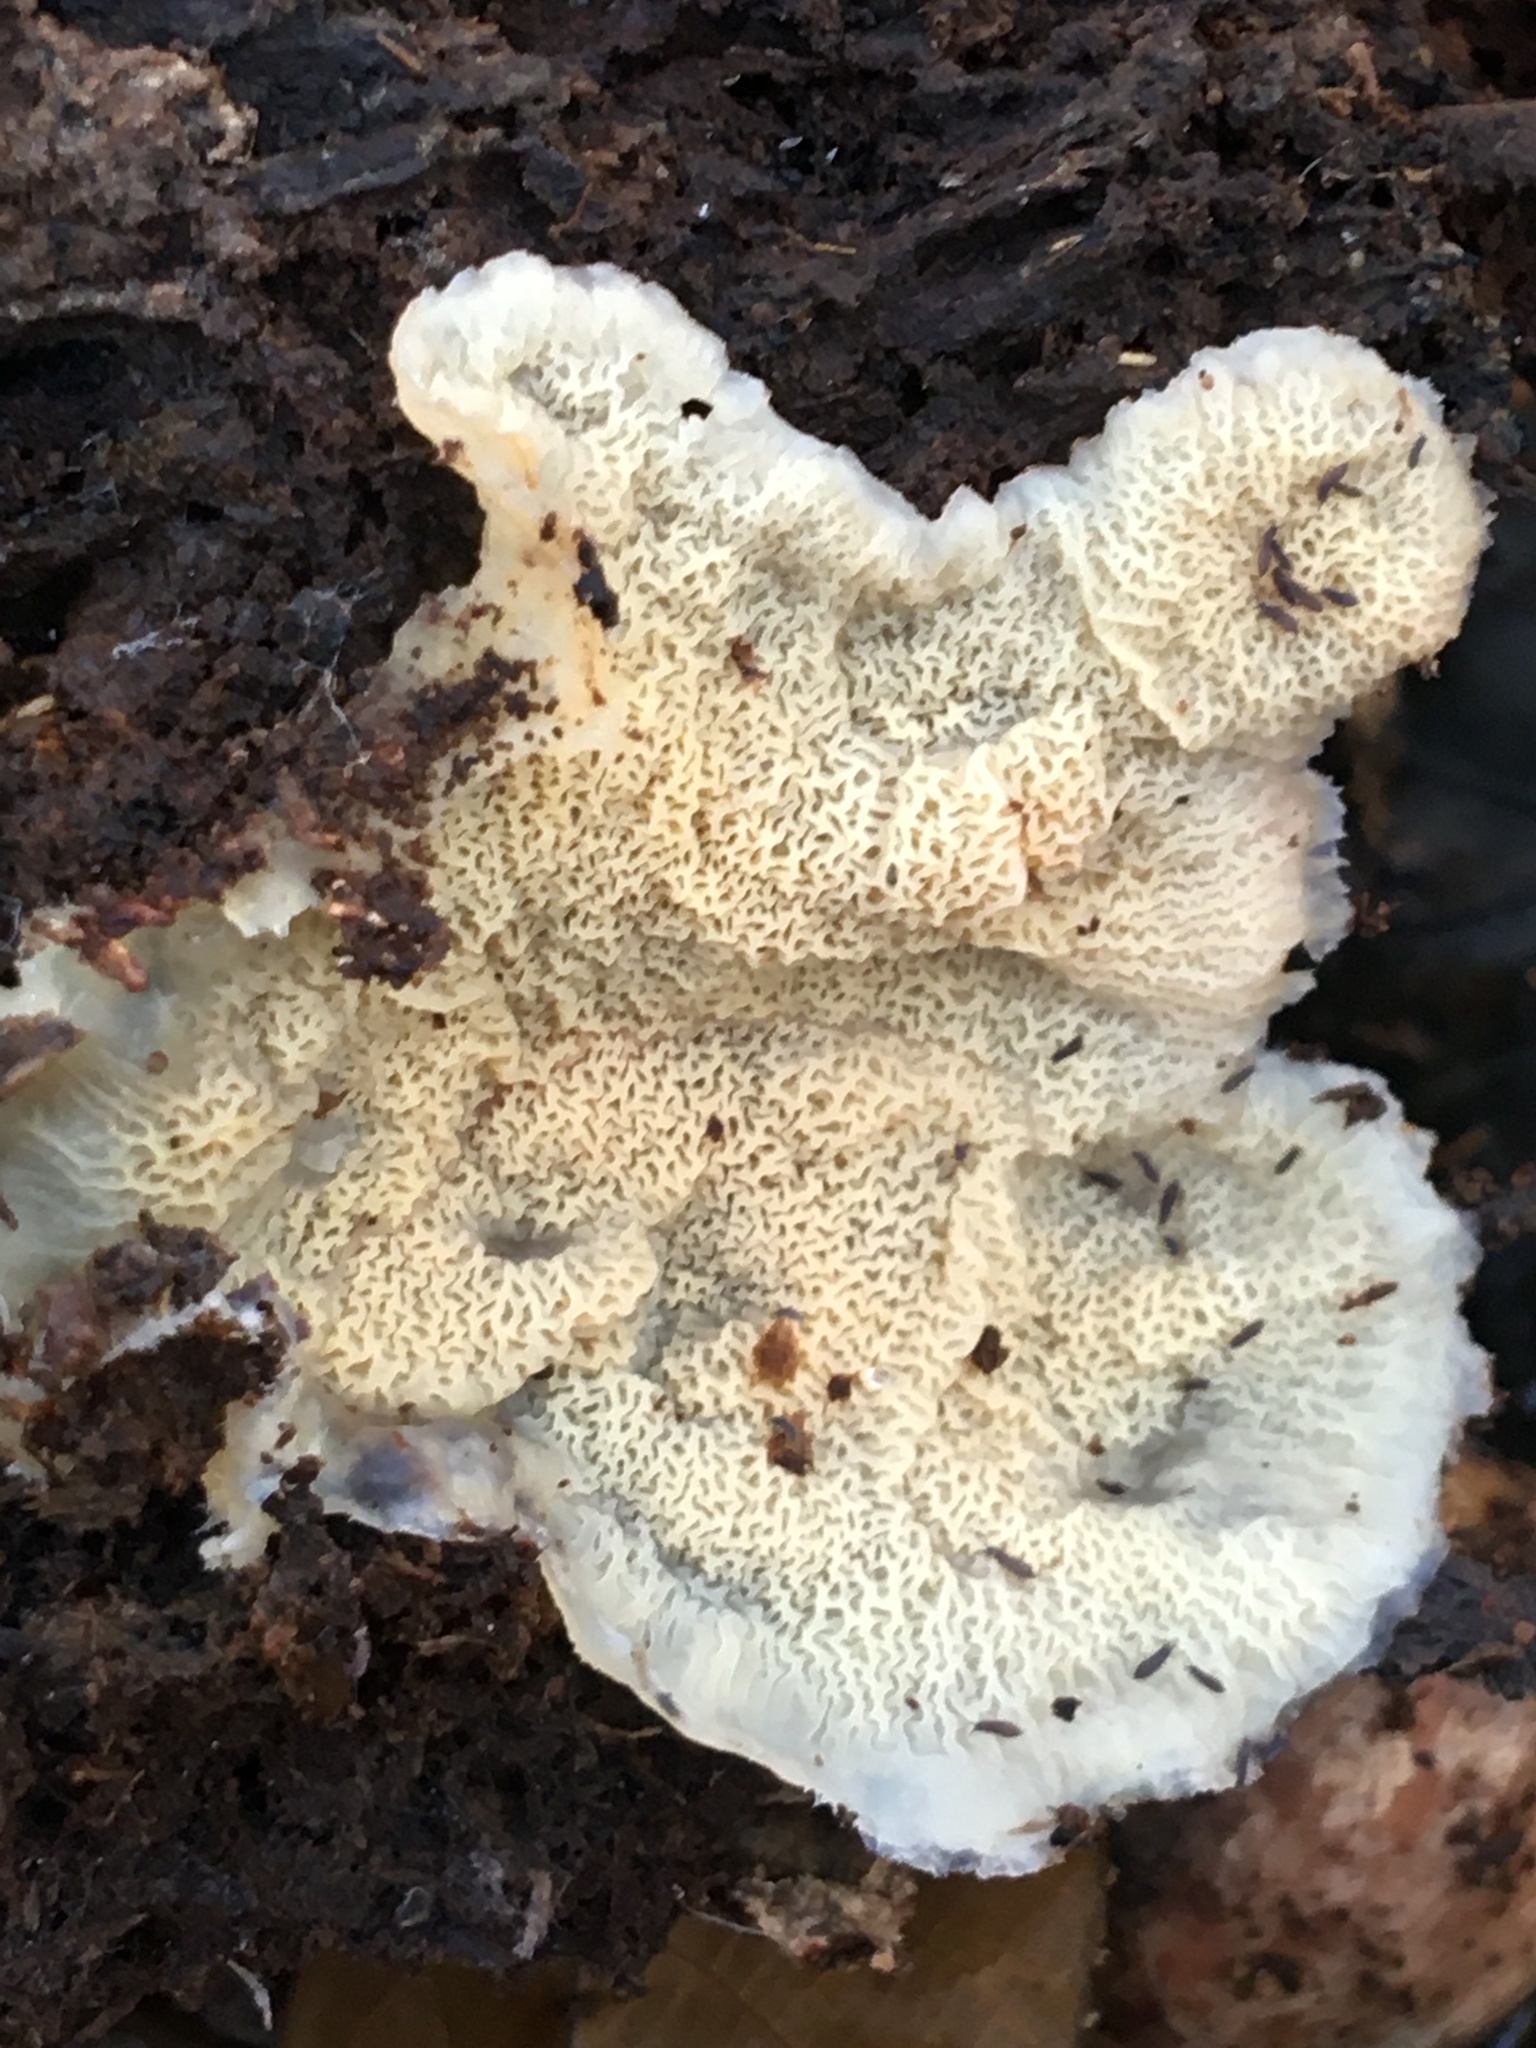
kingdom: Fungi
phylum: Basidiomycota
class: Agaricomycetes
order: Polyporales
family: Meruliaceae
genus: Phlebia
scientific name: Phlebia tremellosa
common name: Jelly rot
